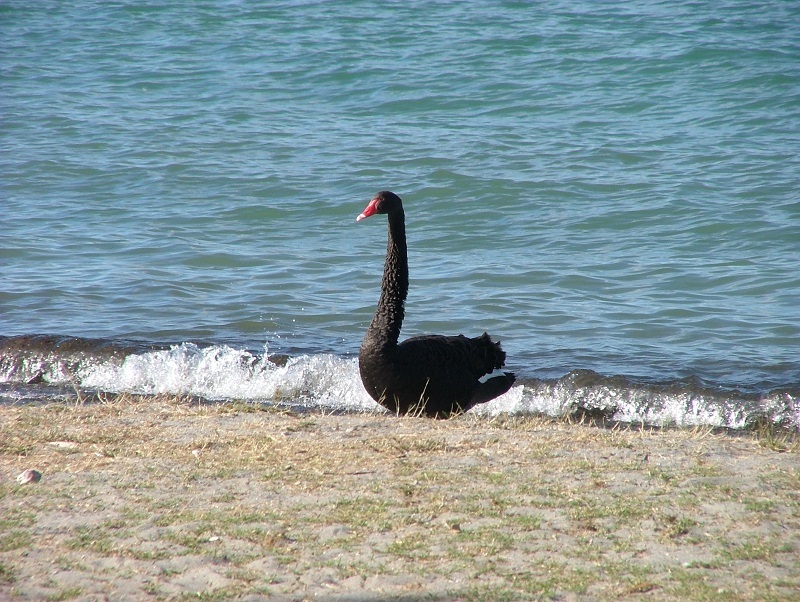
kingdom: Animalia
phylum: Chordata
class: Aves
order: Anseriformes
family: Anatidae
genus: Cygnus
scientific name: Cygnus atratus
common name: Black swan
